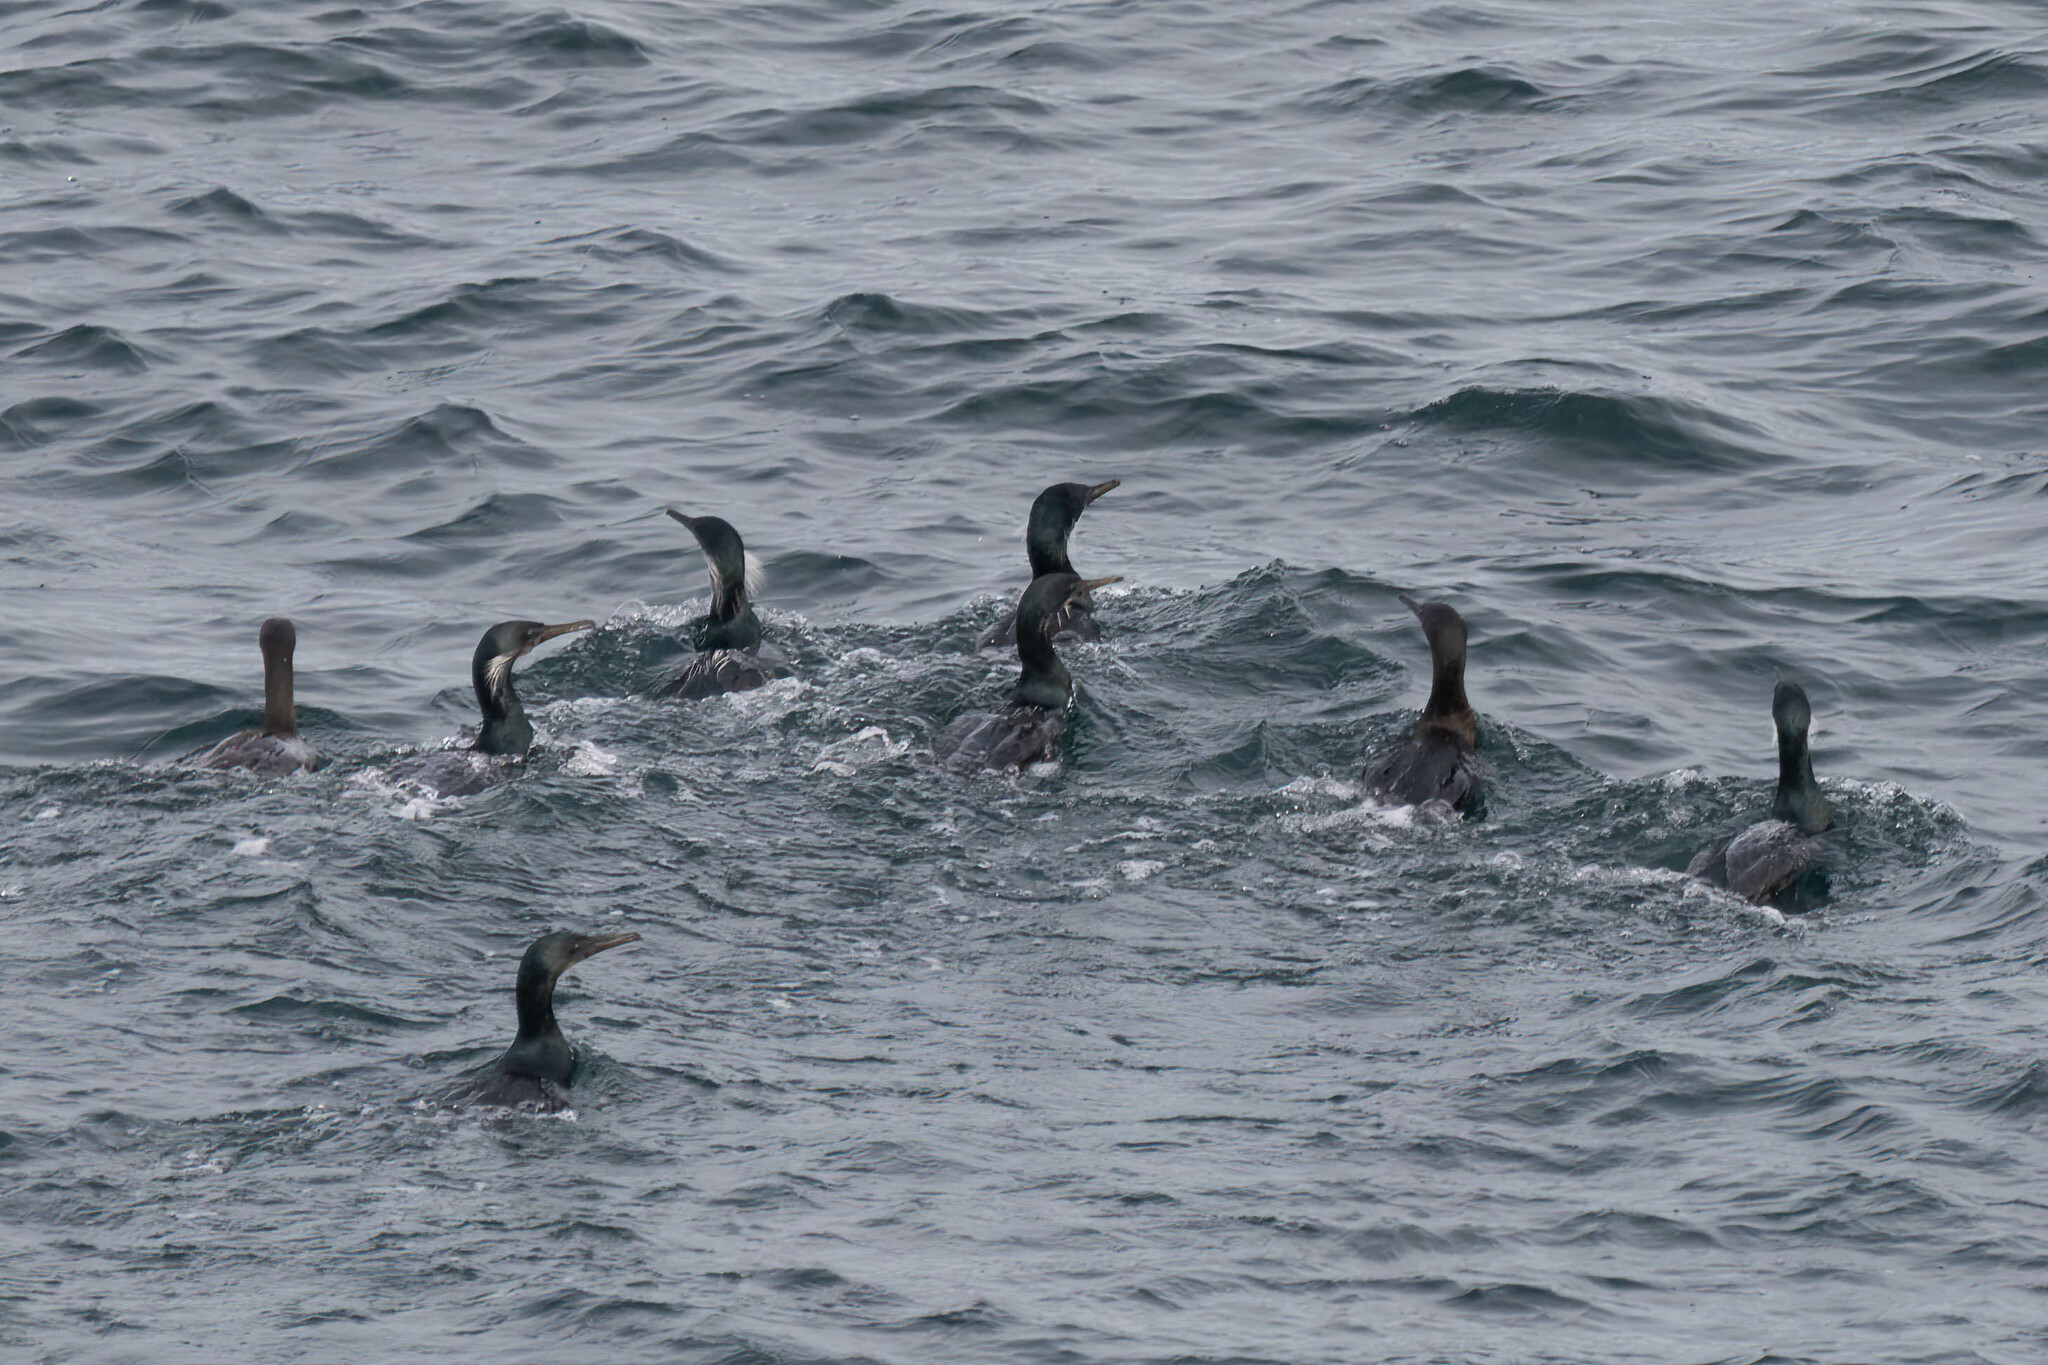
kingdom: Animalia
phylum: Chordata
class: Aves
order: Suliformes
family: Phalacrocoracidae
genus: Urile
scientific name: Urile penicillatus
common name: Brandt's cormorant
